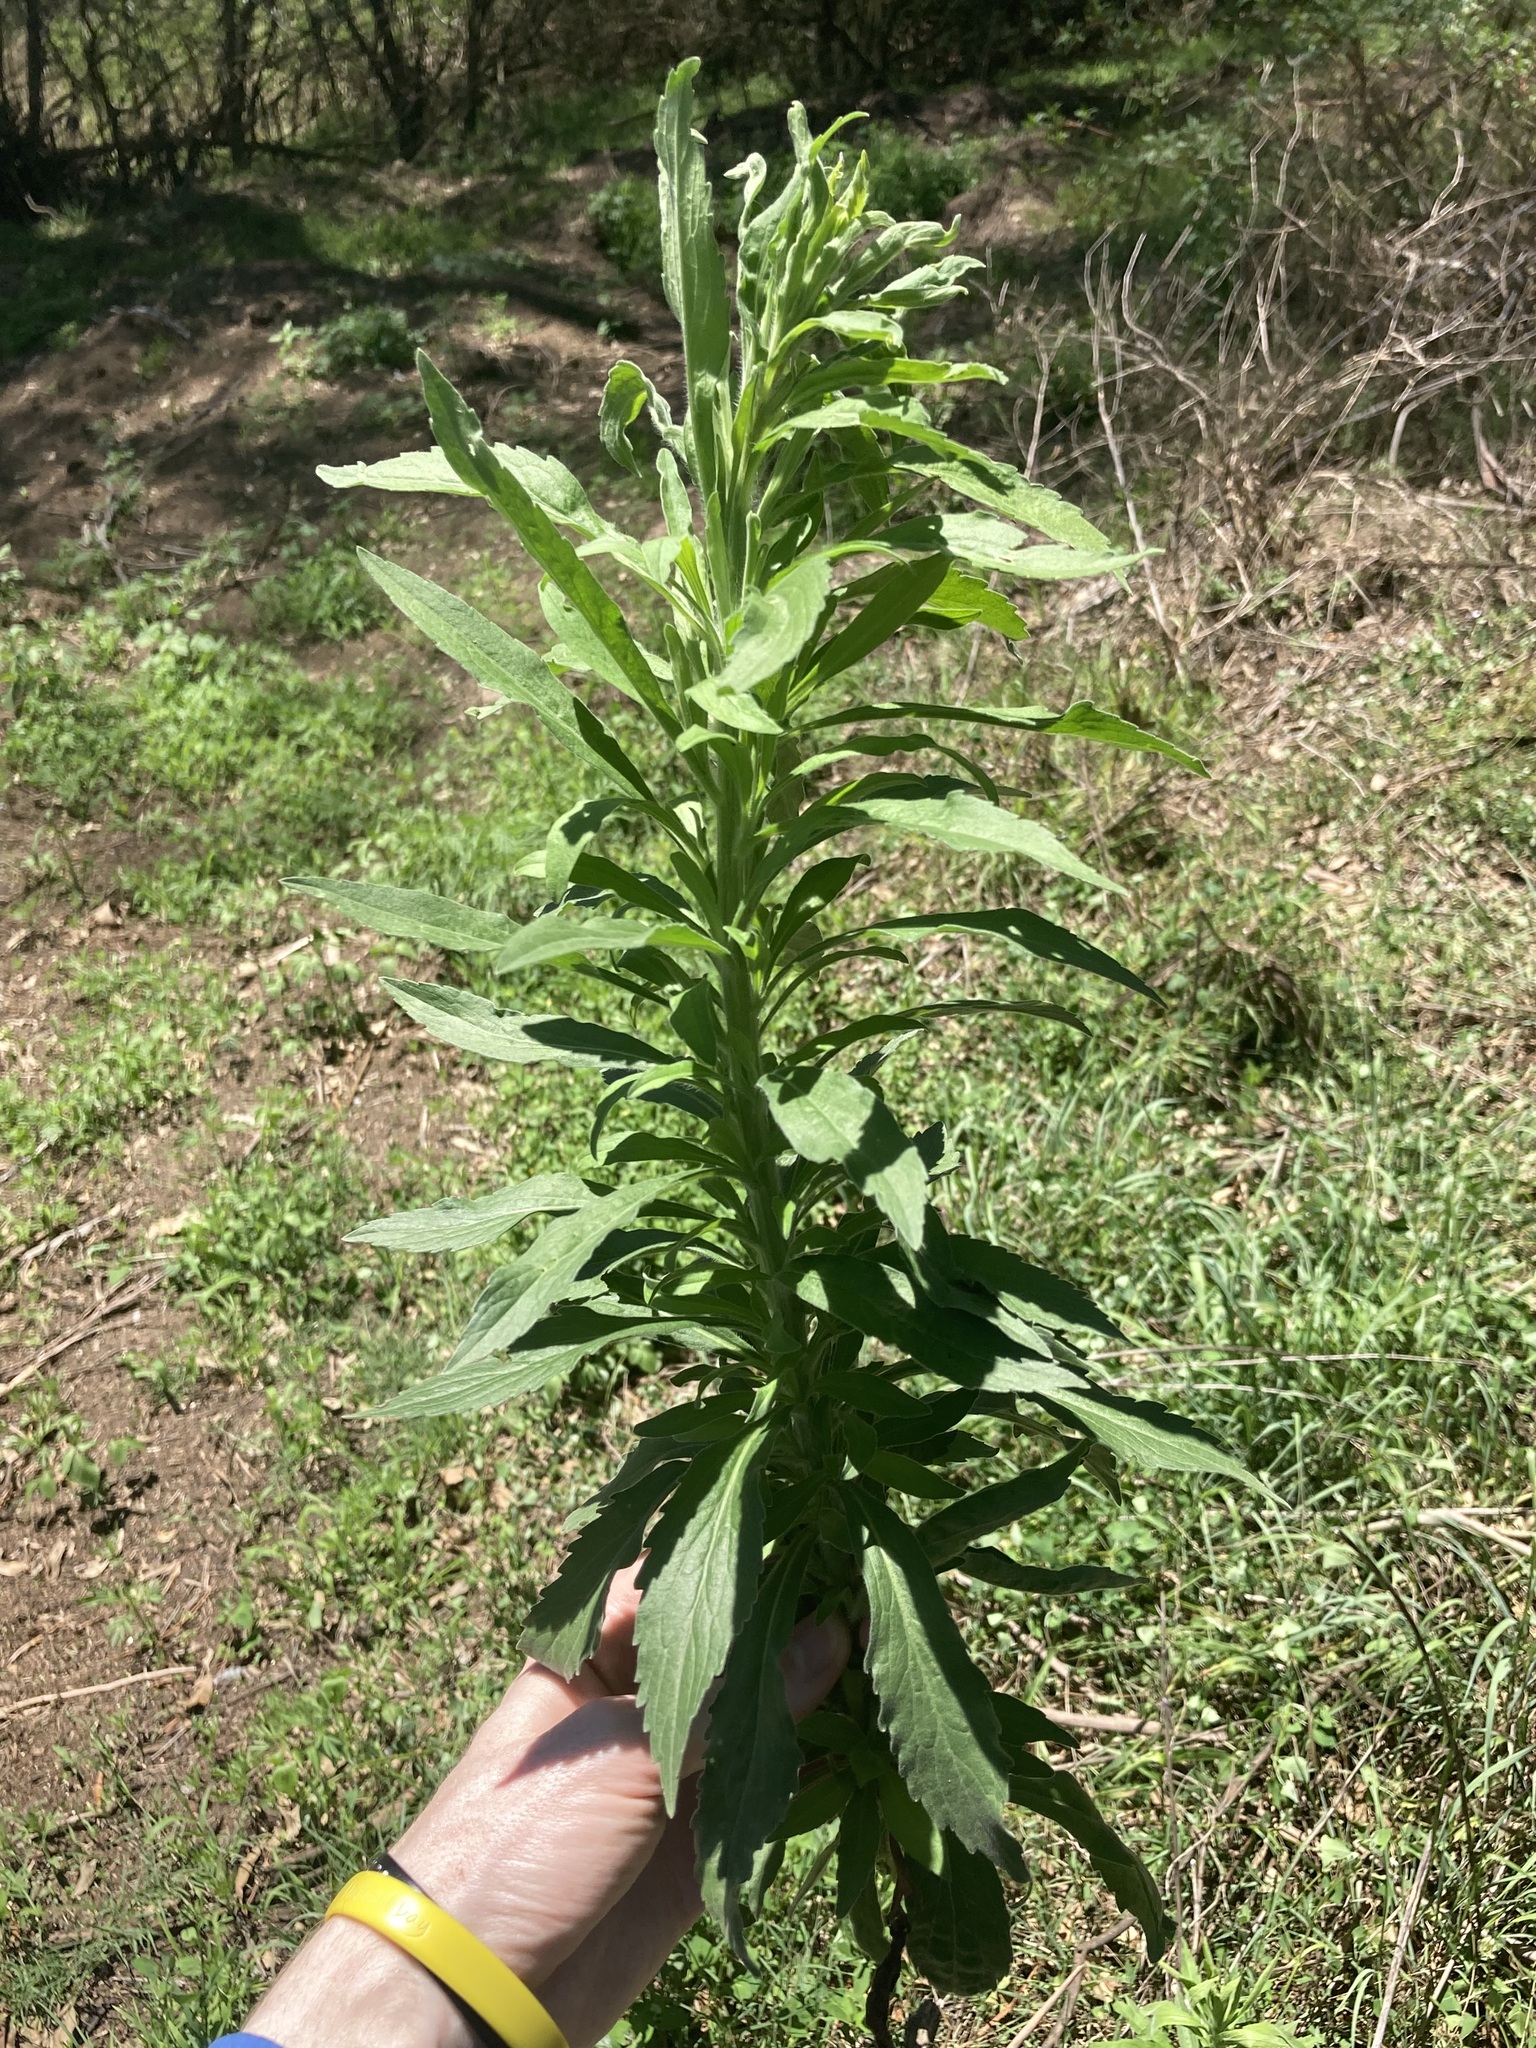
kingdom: Plantae
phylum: Tracheophyta
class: Magnoliopsida
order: Asterales
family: Asteraceae
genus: Erigeron
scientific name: Erigeron sumatrensis
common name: Daisy
